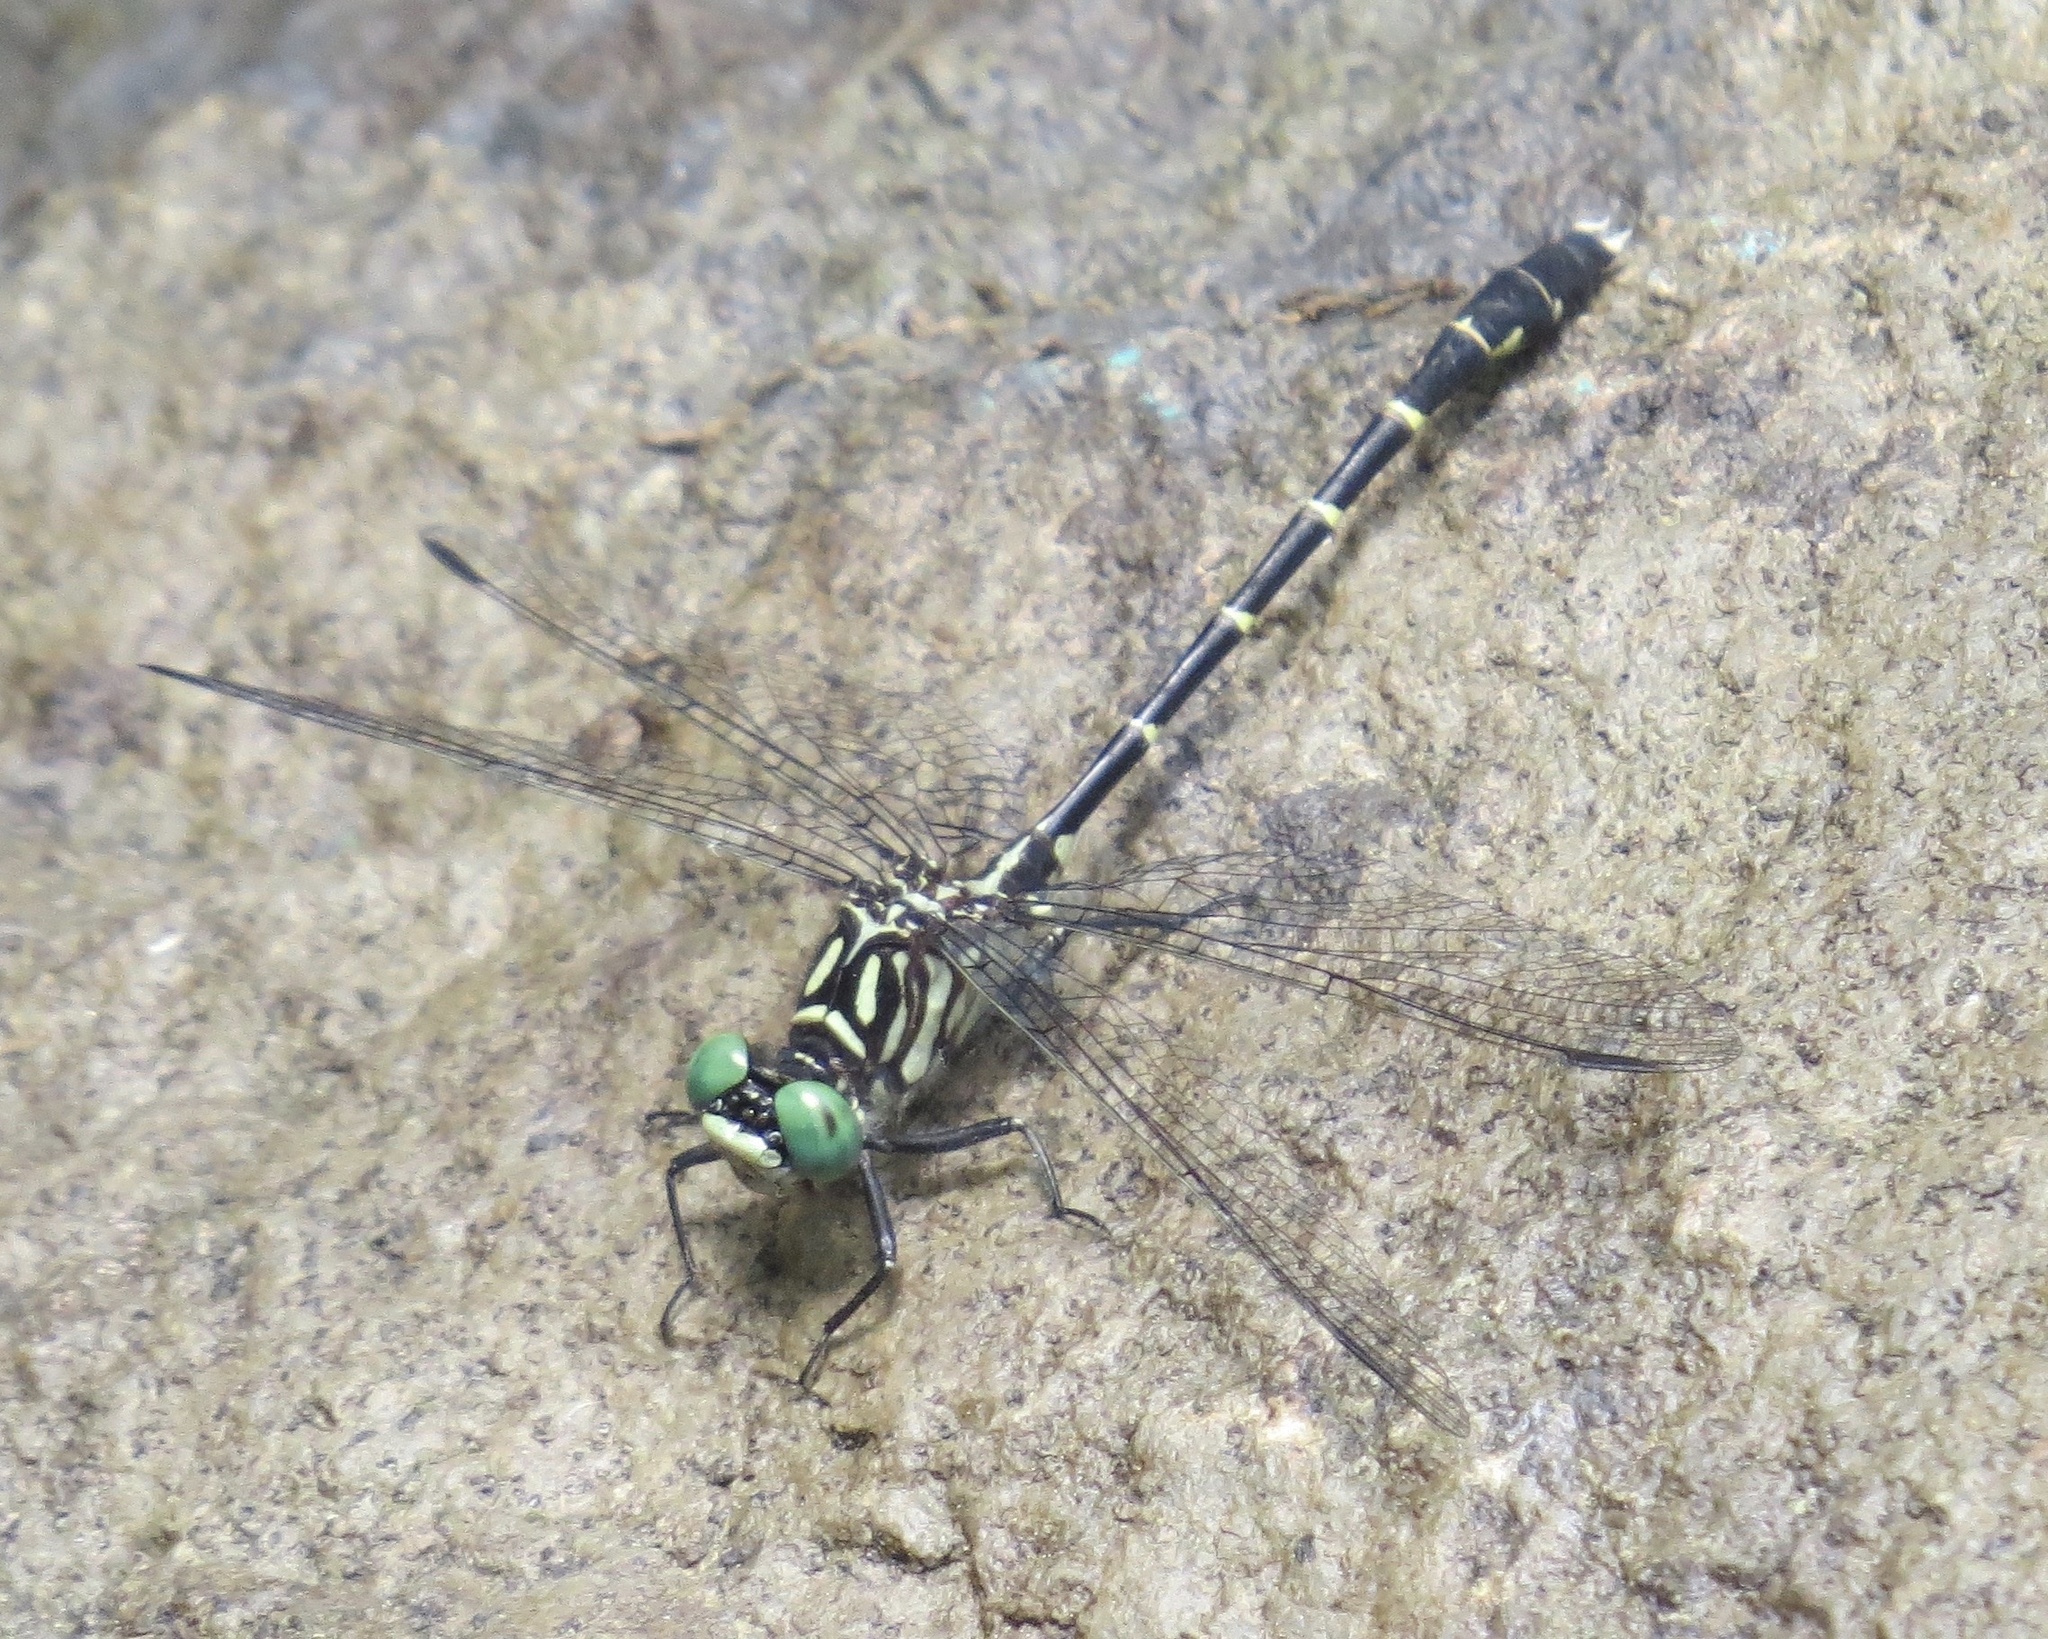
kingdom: Animalia
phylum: Arthropoda
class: Insecta
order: Odonata
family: Gomphidae
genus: Stylogomphus
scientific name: Stylogomphus albistylus
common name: Eastern least clubtail
